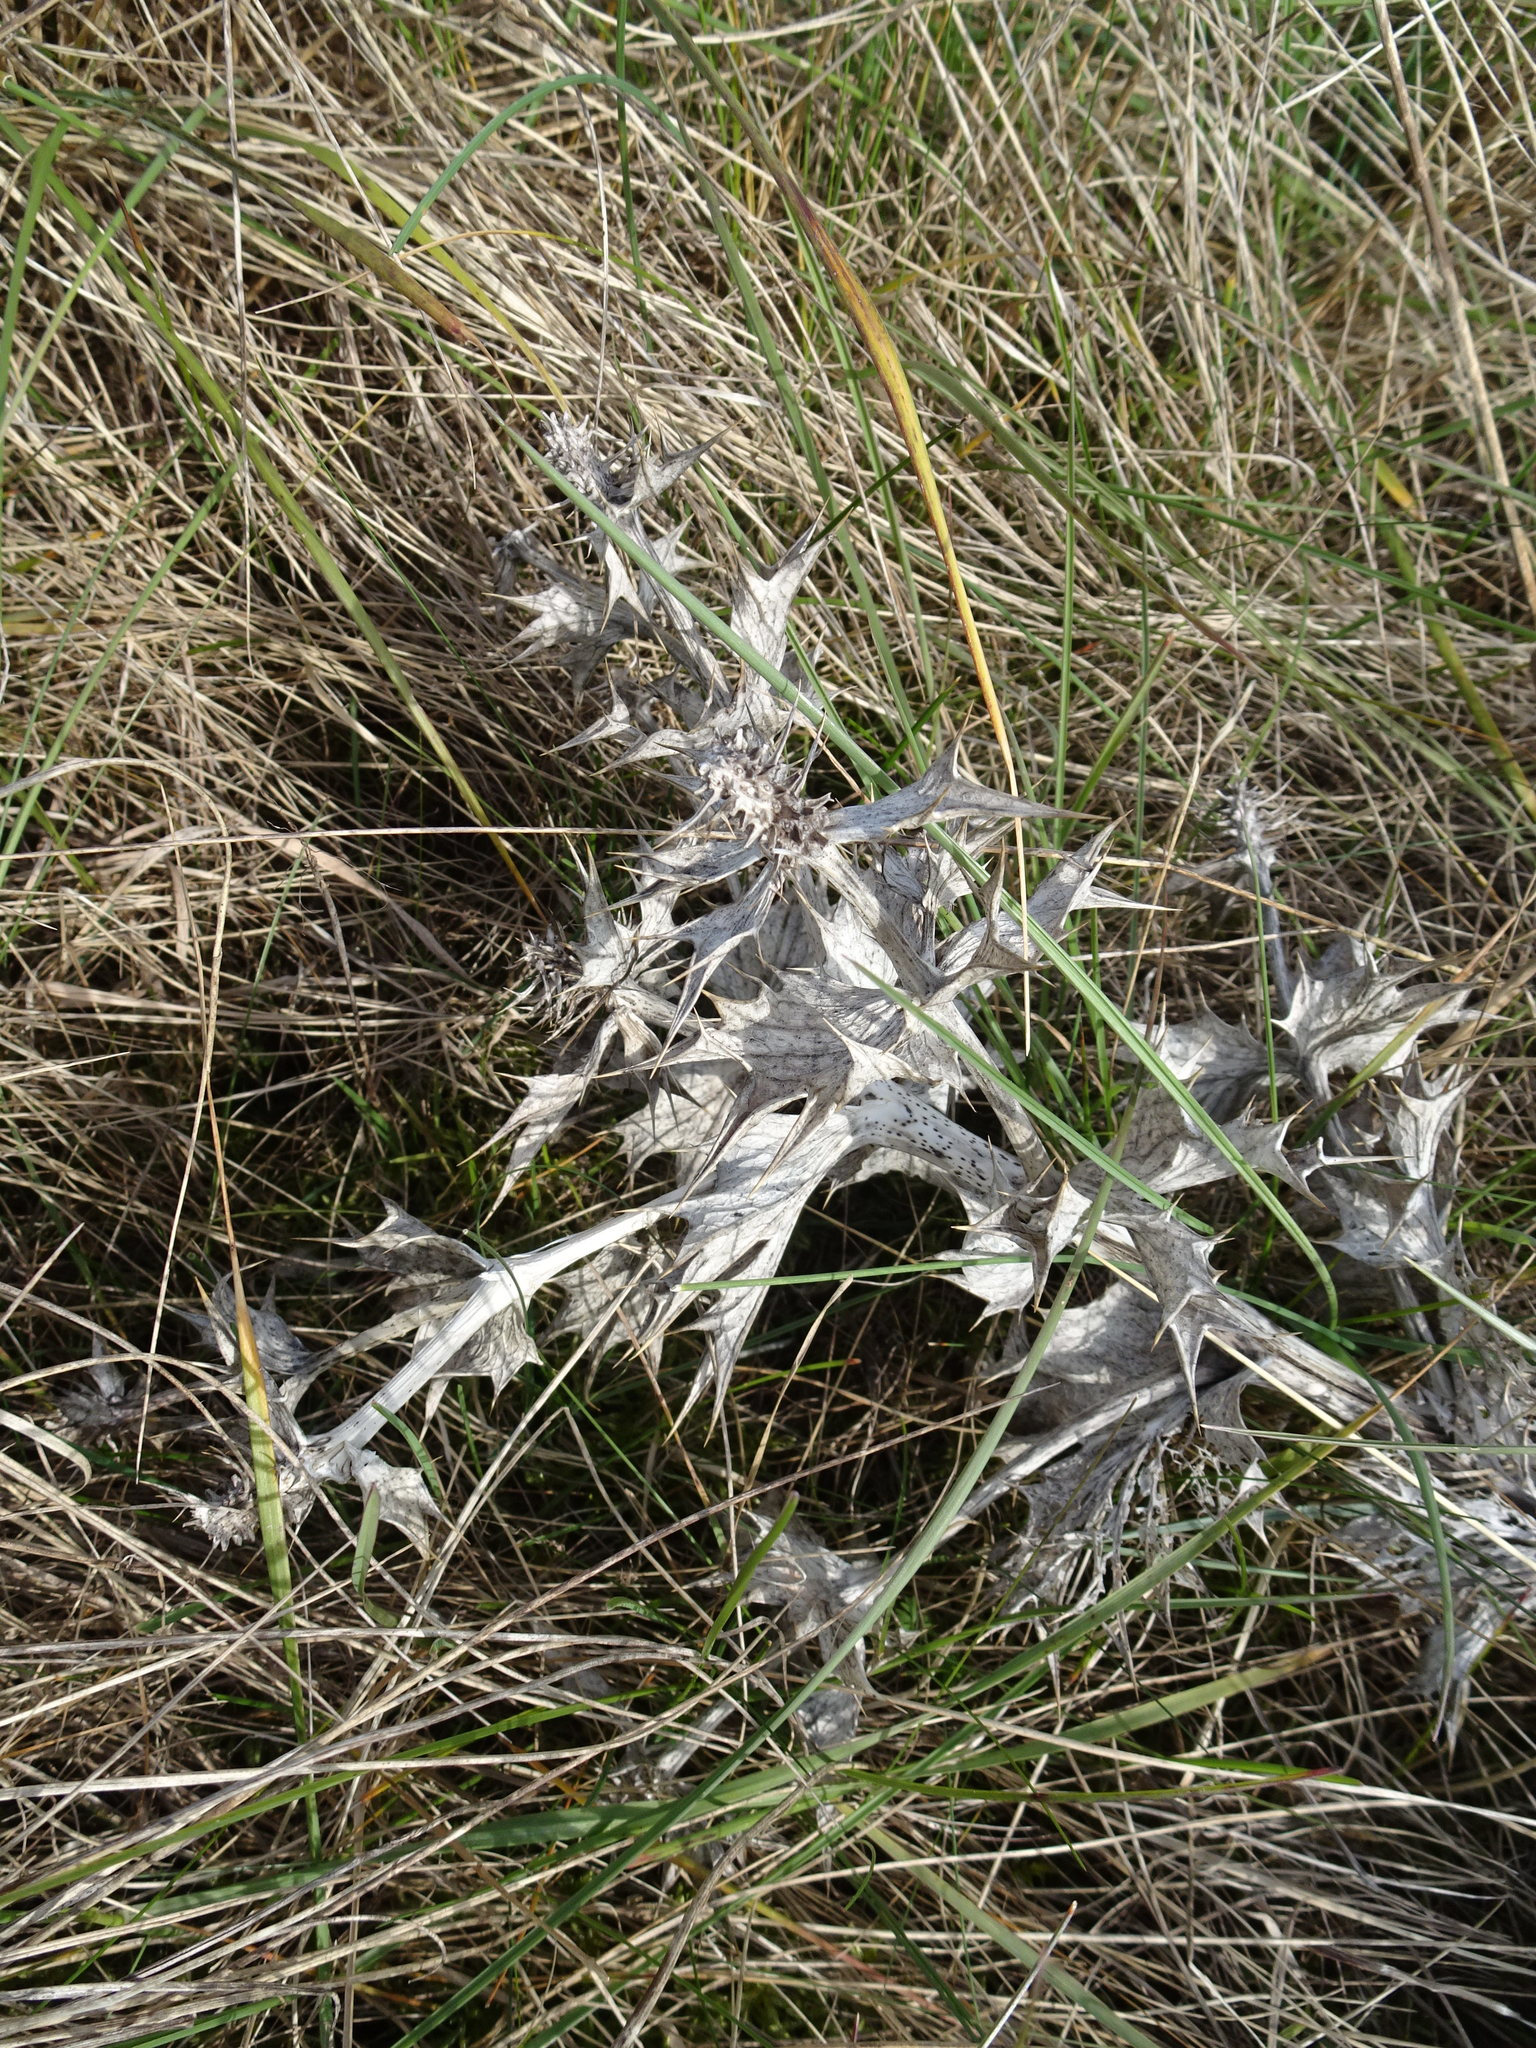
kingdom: Plantae
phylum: Tracheophyta
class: Magnoliopsida
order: Apiales
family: Apiaceae
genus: Eryngium
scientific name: Eryngium maritimum
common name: Sea-holly
